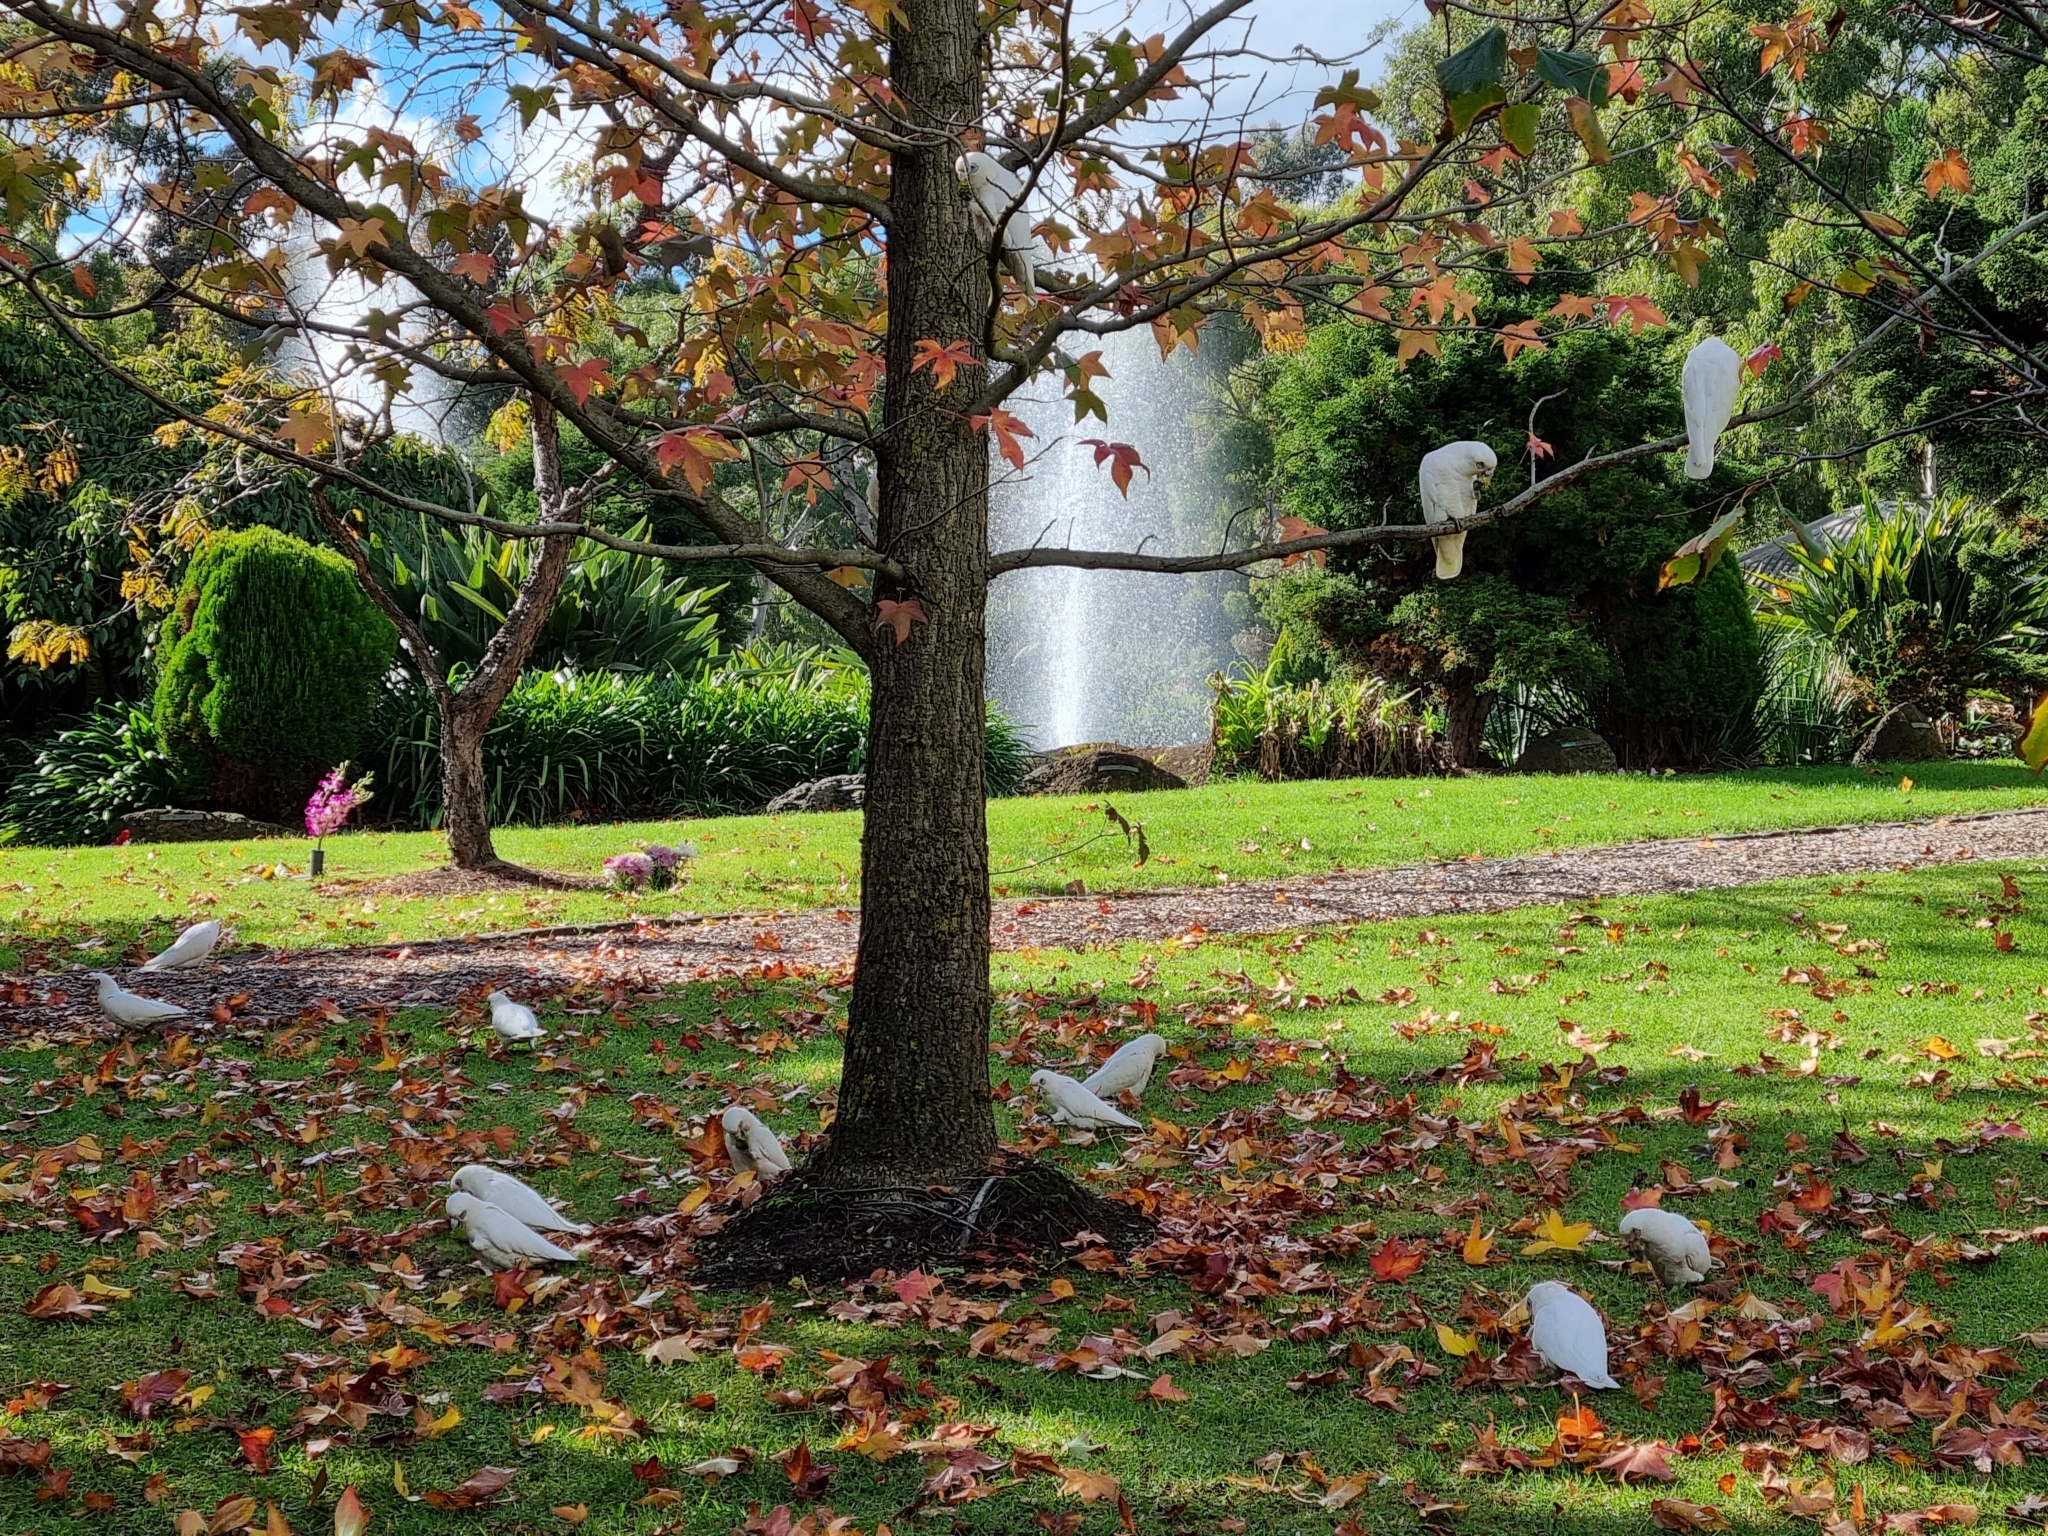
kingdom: Animalia
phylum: Chordata
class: Aves
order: Psittaciformes
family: Psittacidae
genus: Cacatua
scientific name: Cacatua sanguinea
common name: Little corella
